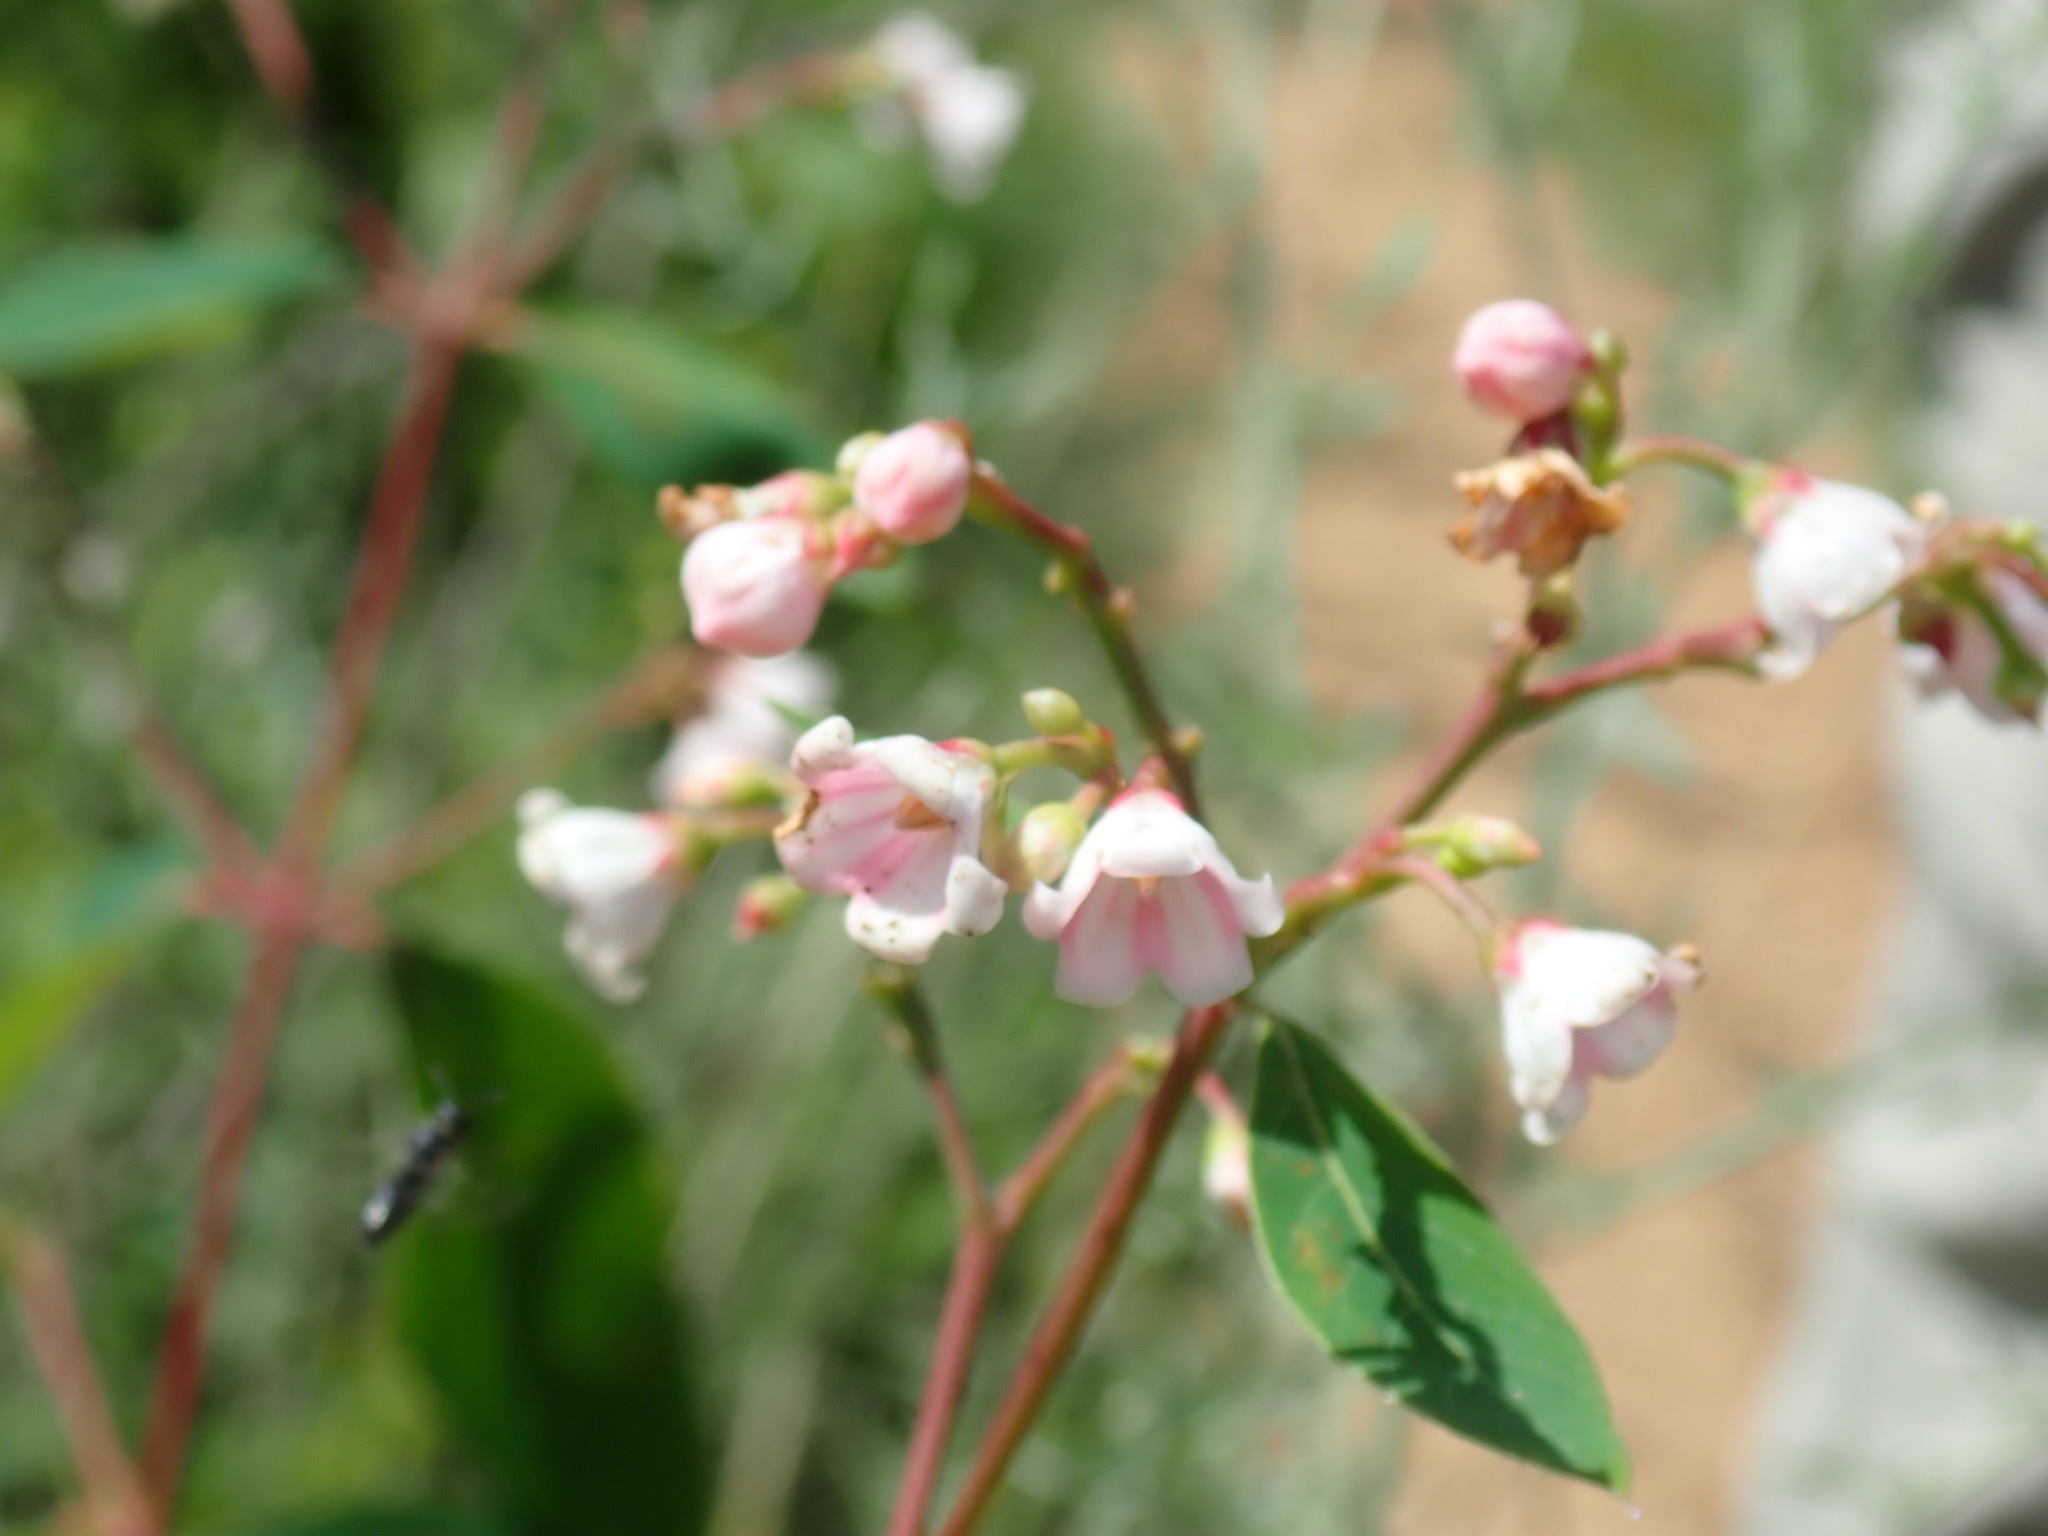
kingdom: Plantae
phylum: Tracheophyta
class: Magnoliopsida
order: Gentianales
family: Apocynaceae
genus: Apocynum
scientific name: Apocynum androsaemifolium
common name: Spreading dogbane
